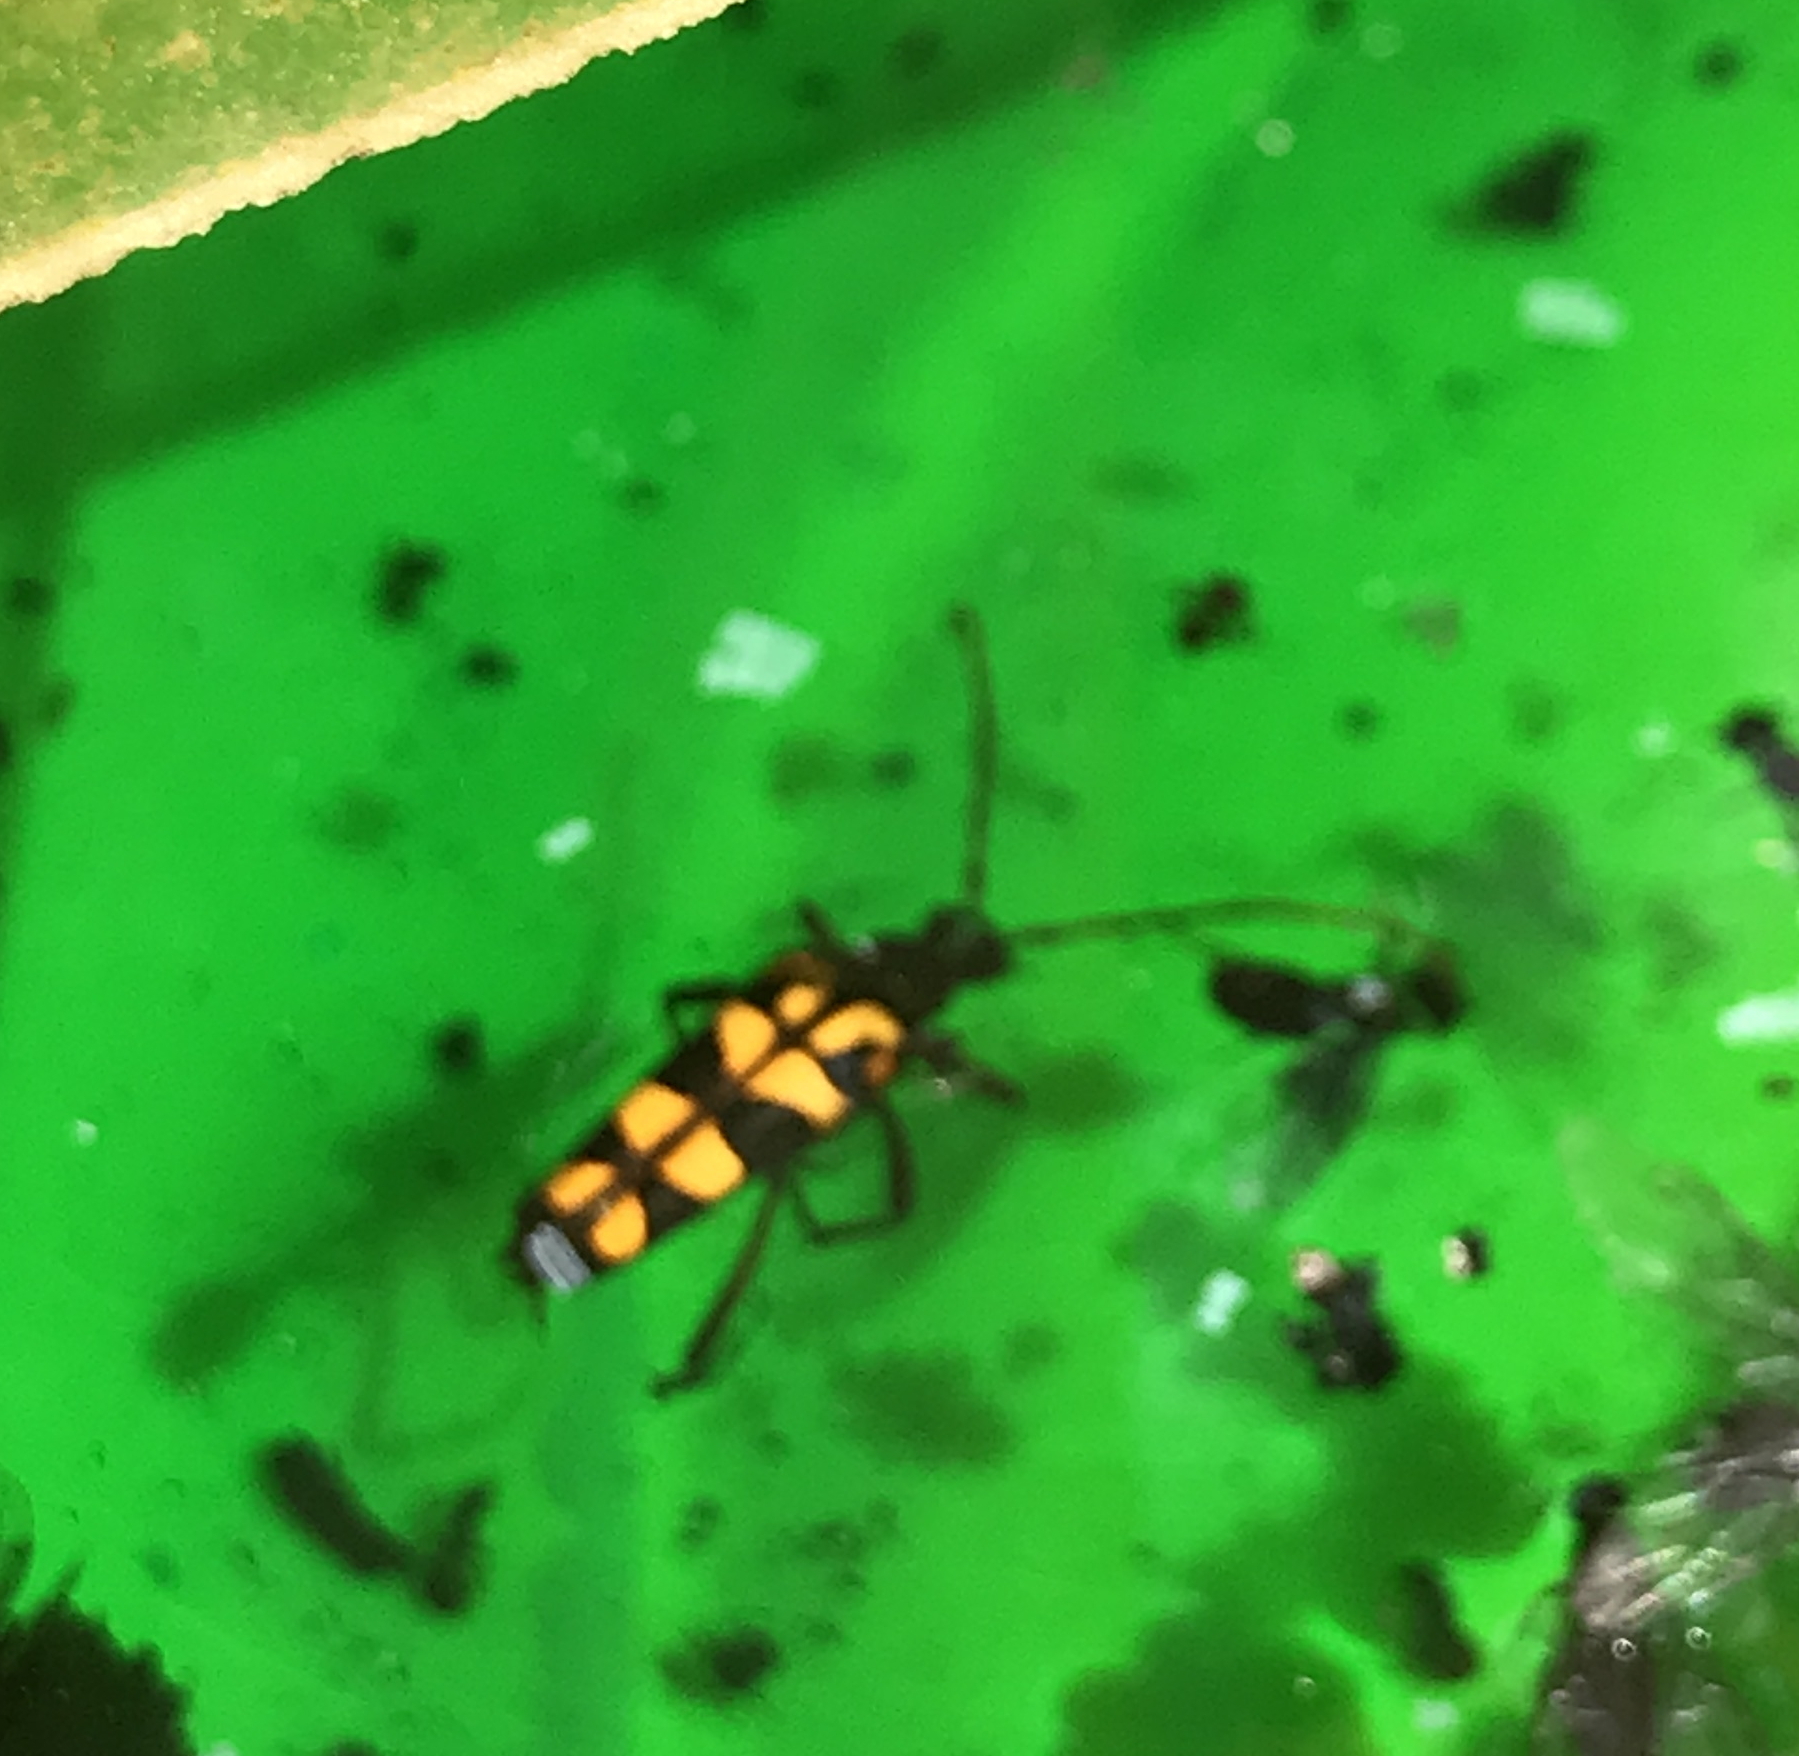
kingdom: Animalia
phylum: Arthropoda
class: Insecta
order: Coleoptera
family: Cerambycidae
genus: Leptura
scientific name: Leptura annularis
